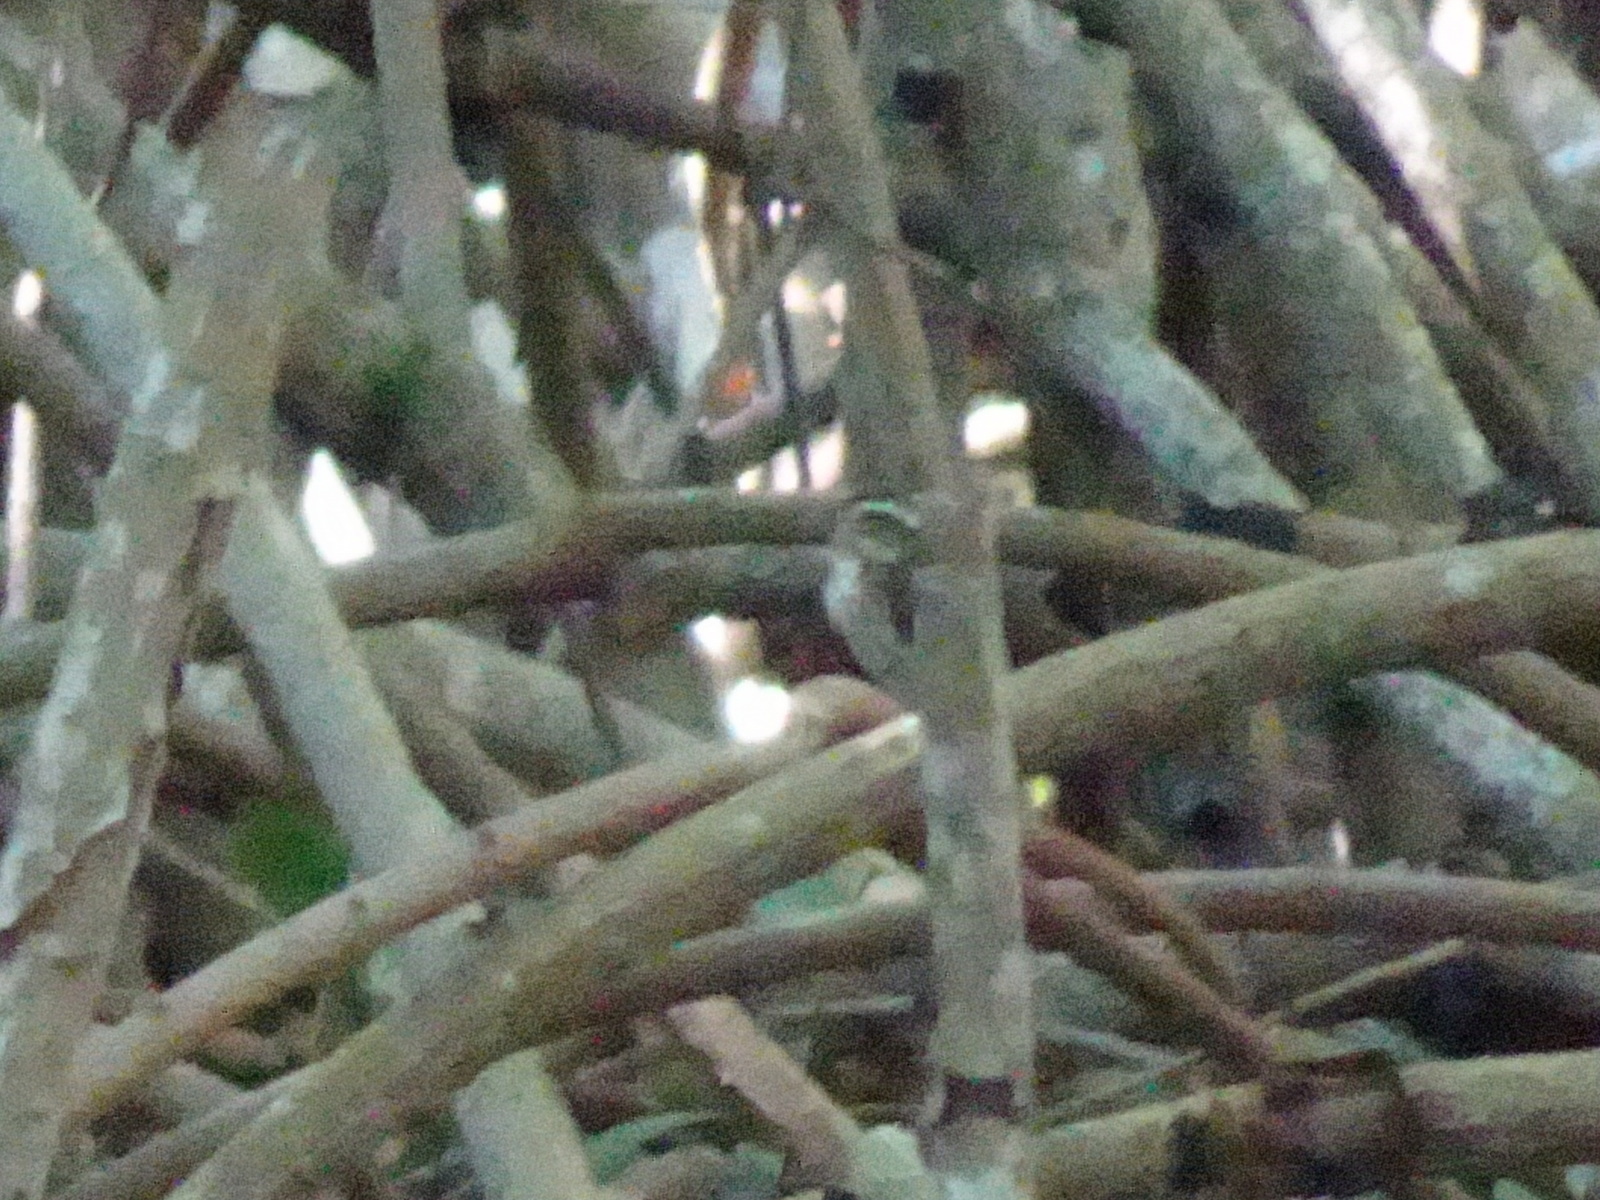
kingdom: Animalia
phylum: Chordata
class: Aves
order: Passeriformes
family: Parulidae
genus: Parkesia
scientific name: Parkesia motacilla
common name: Louisiana waterthrush
